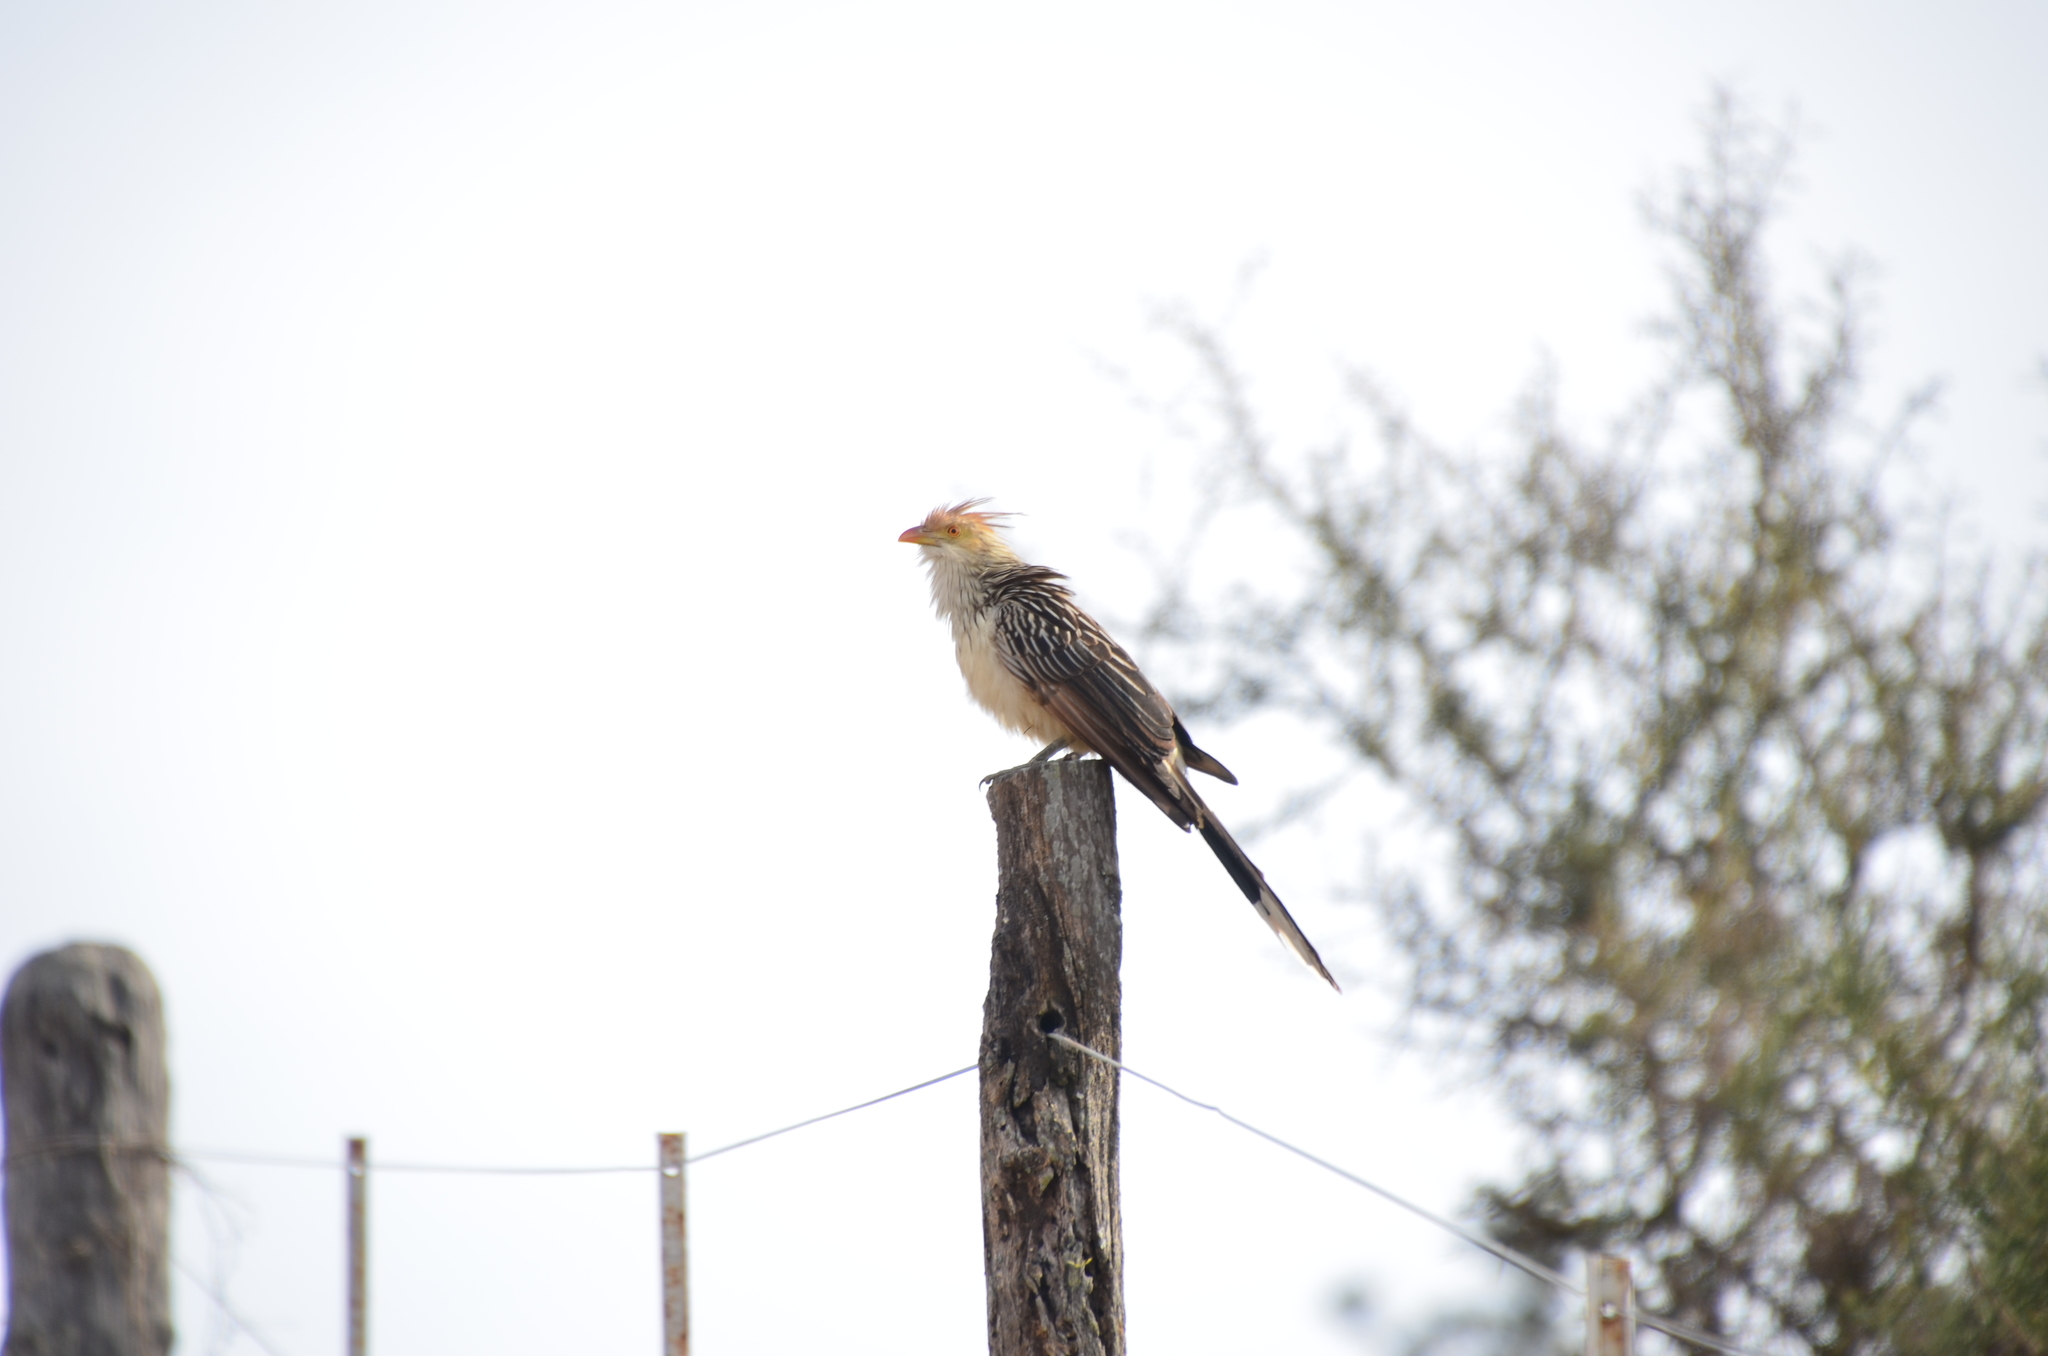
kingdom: Animalia
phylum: Chordata
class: Aves
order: Cuculiformes
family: Cuculidae
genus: Guira
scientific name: Guira guira
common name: Guira cuckoo
